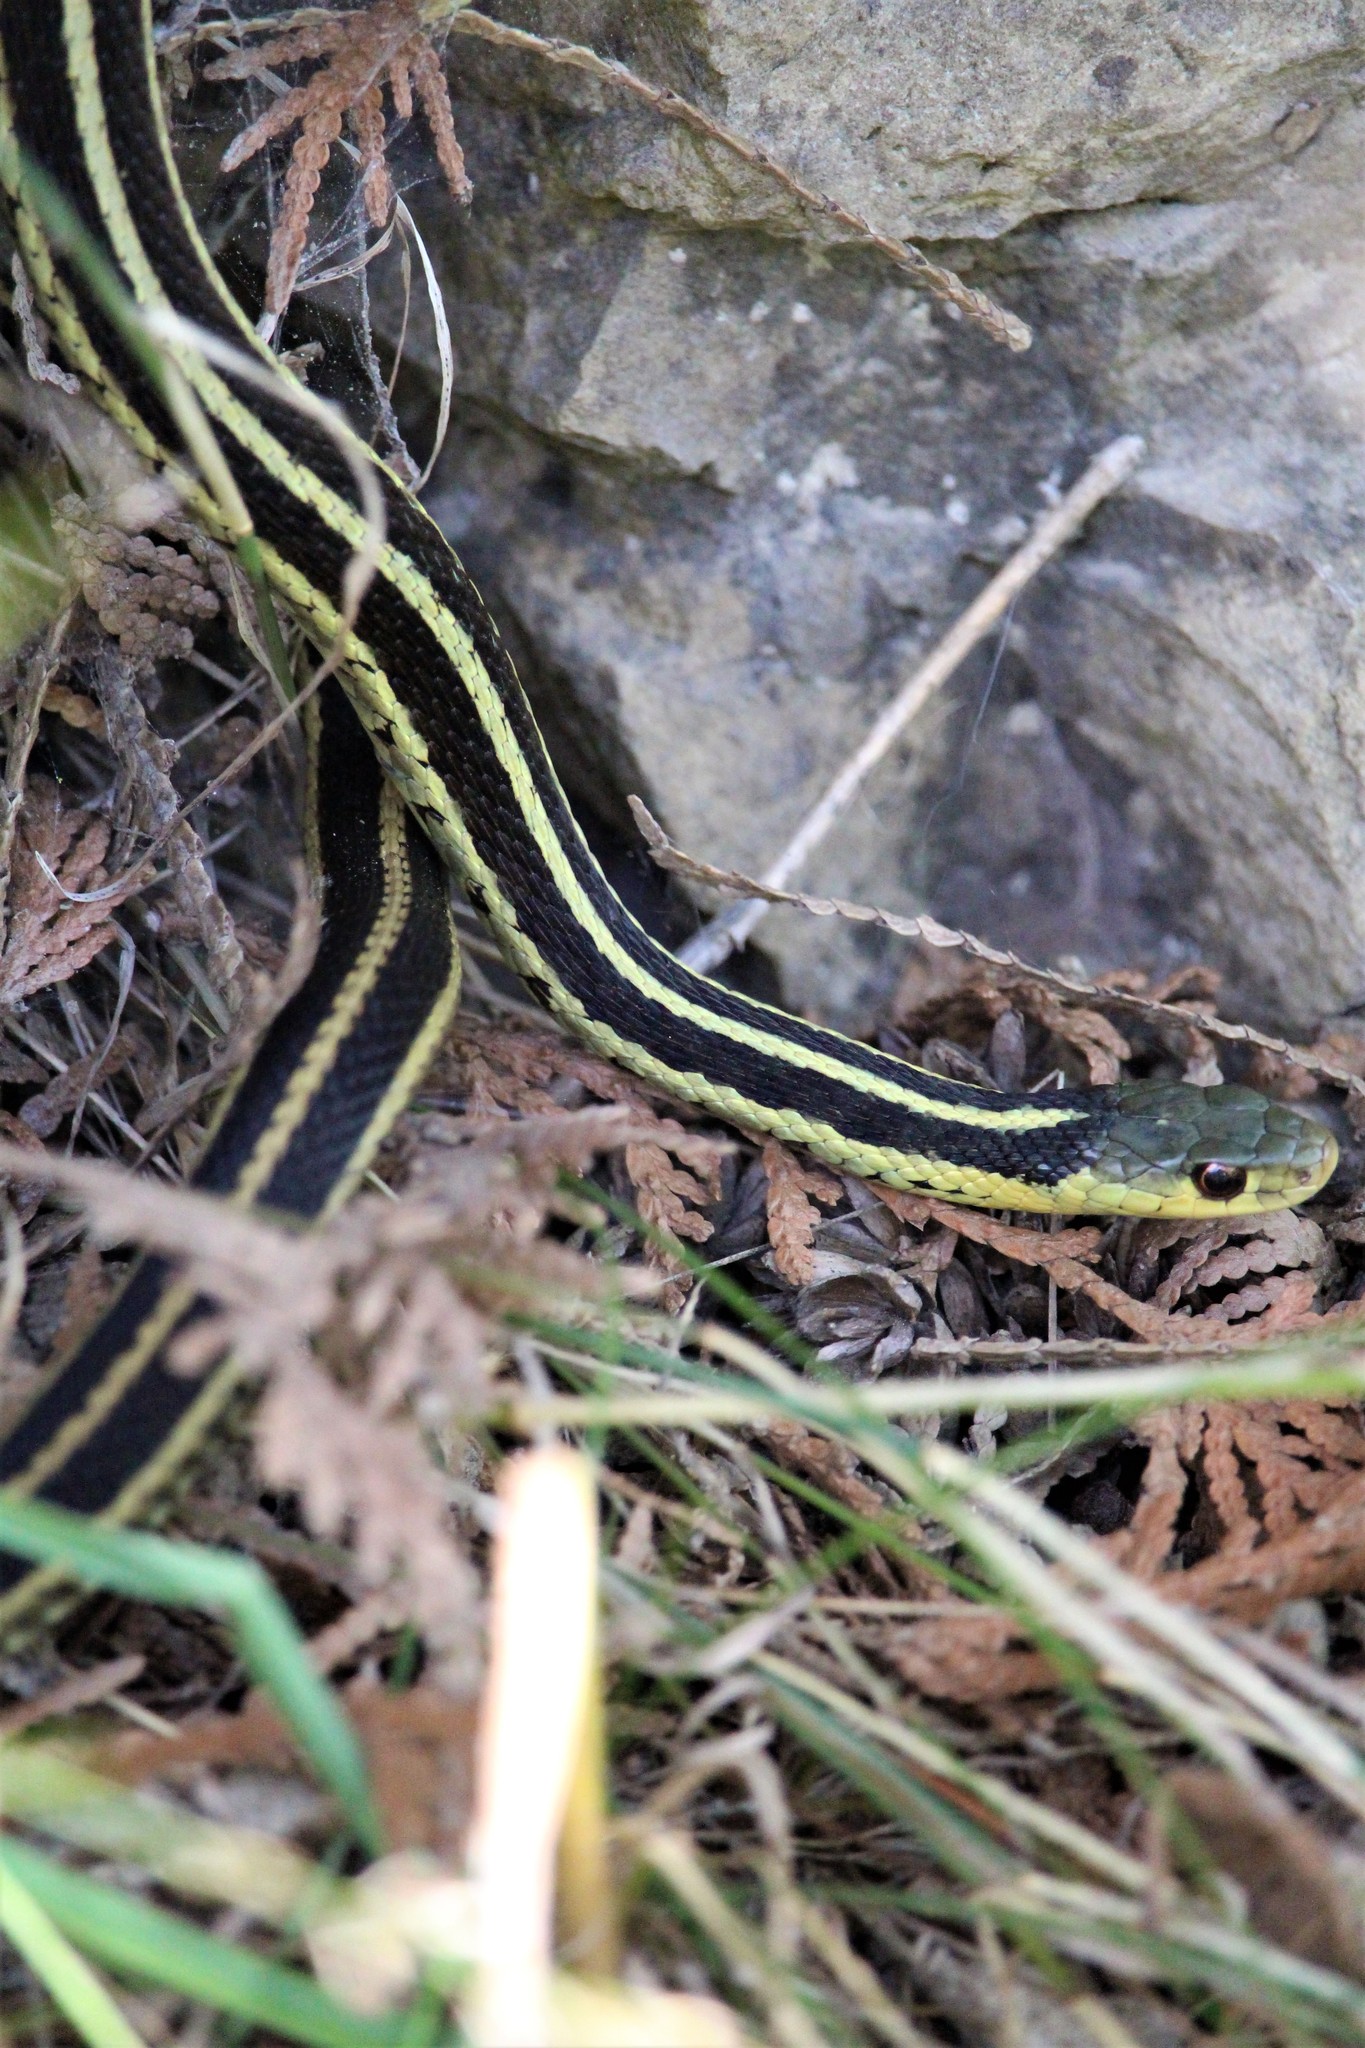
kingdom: Animalia
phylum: Chordata
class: Squamata
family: Colubridae
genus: Thamnophis
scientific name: Thamnophis sirtalis
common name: Common garter snake
